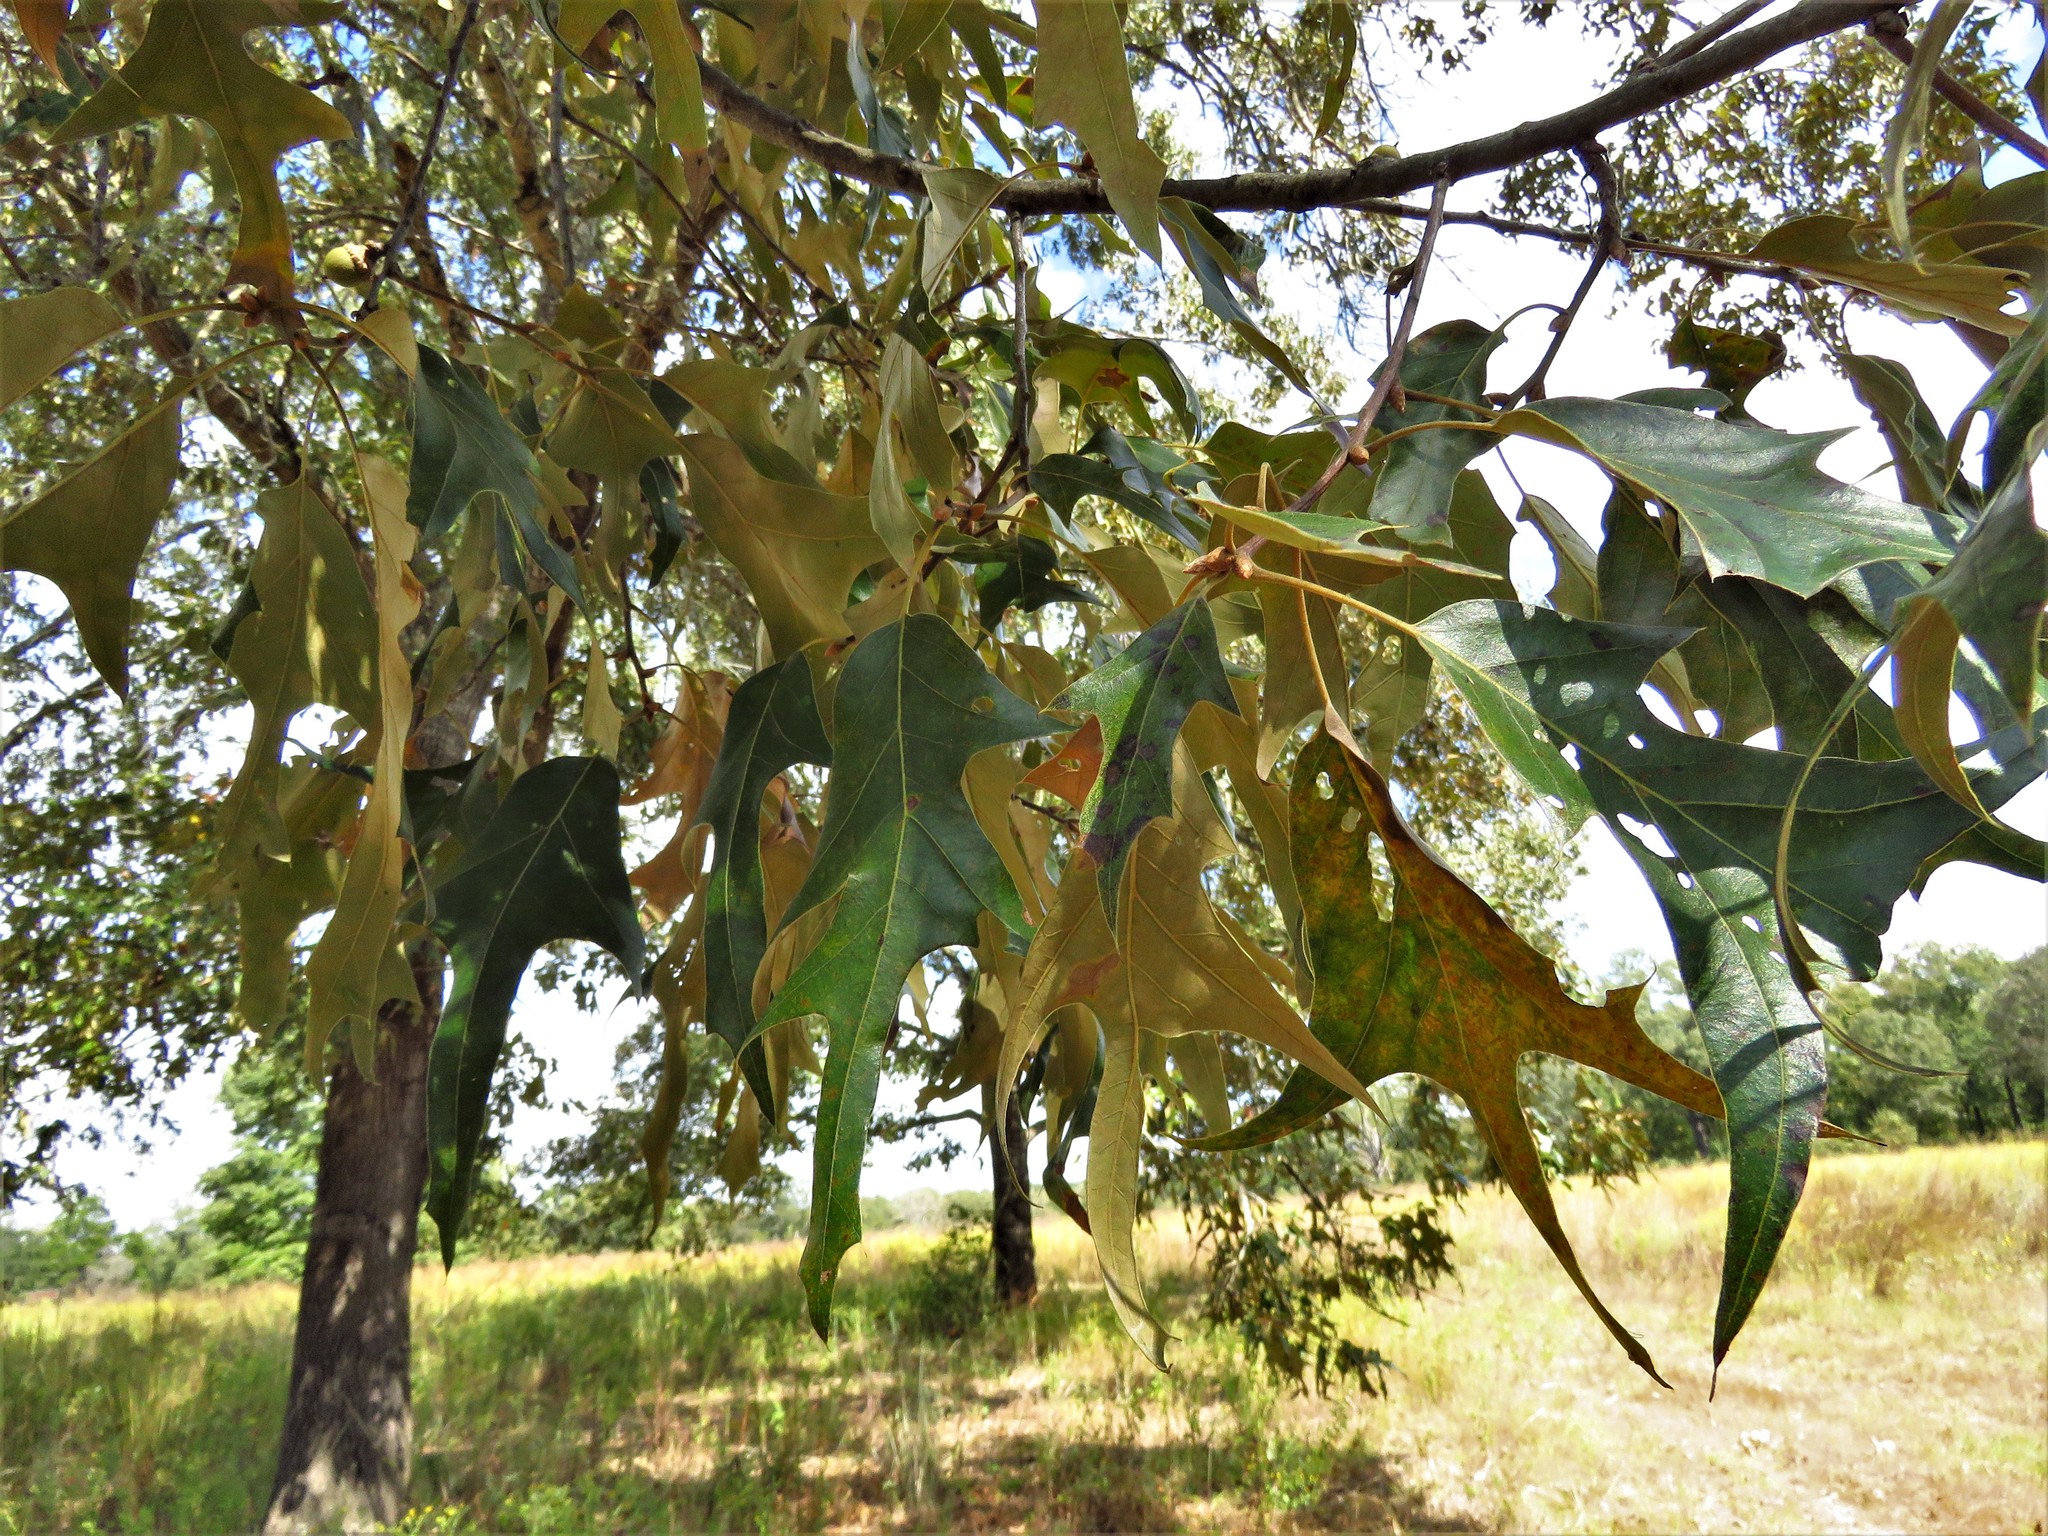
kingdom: Plantae
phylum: Tracheophyta
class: Magnoliopsida
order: Fagales
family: Fagaceae
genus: Quercus
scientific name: Quercus falcata
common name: Southern red oak
